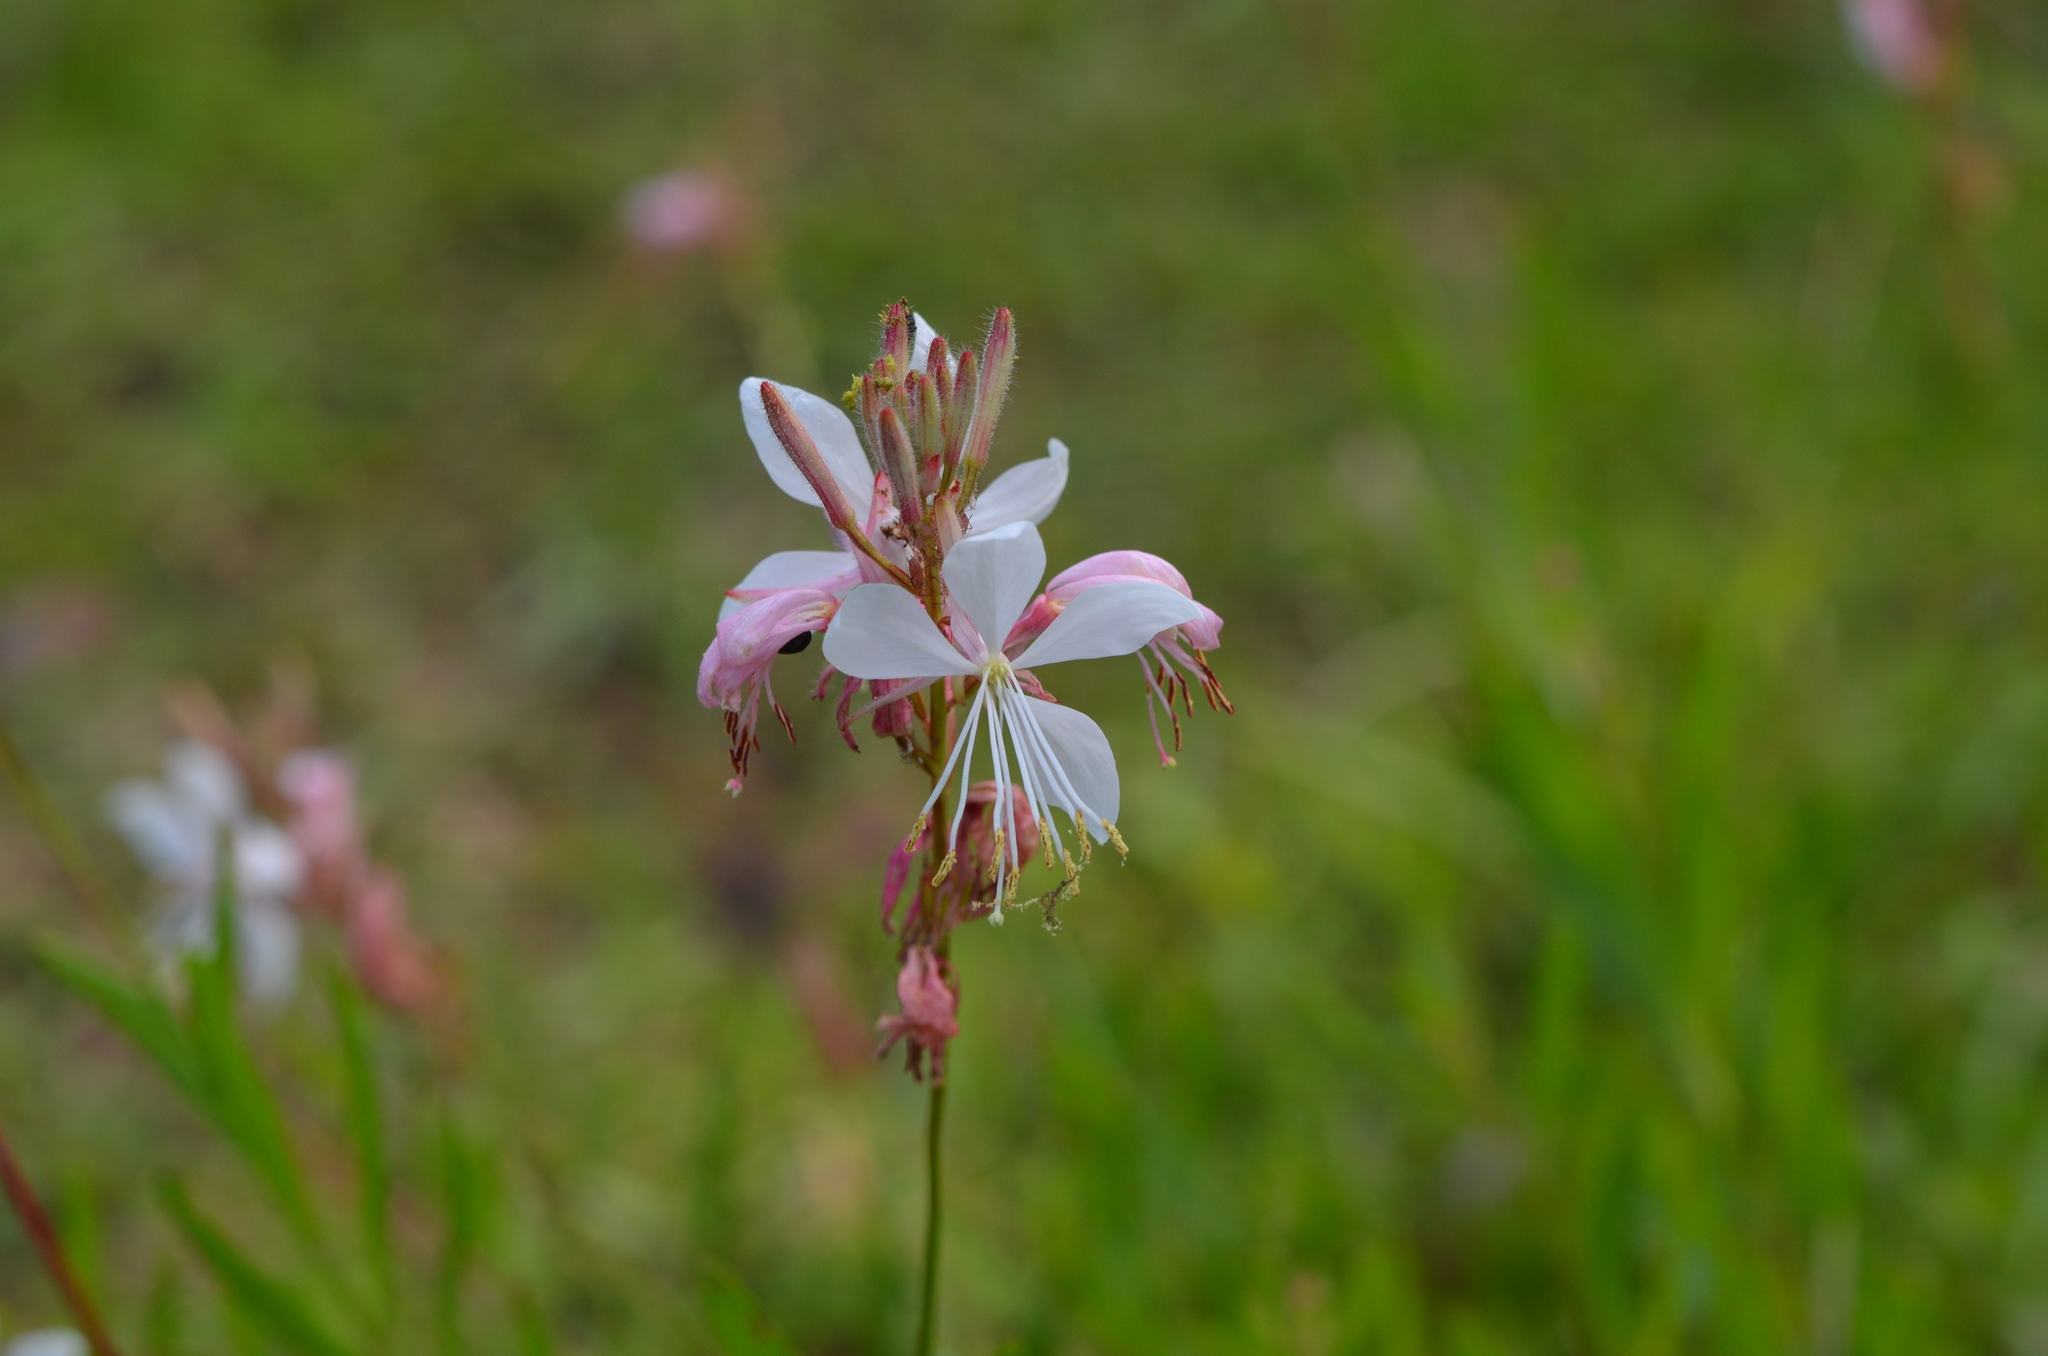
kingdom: Plantae
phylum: Tracheophyta
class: Magnoliopsida
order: Myrtales
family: Onagraceae
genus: Oenothera
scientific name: Oenothera lindheimeri
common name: Lindheimer's beeblossom
